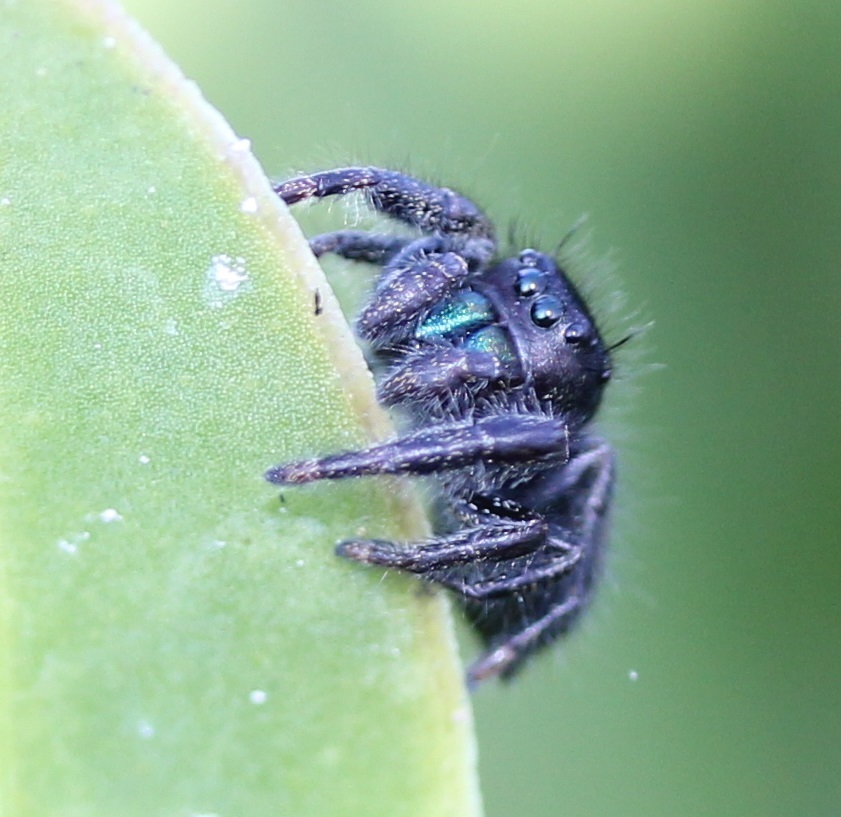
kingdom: Animalia
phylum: Arthropoda
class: Arachnida
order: Araneae
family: Salticidae
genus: Phidippus
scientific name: Phidippus johnsoni
